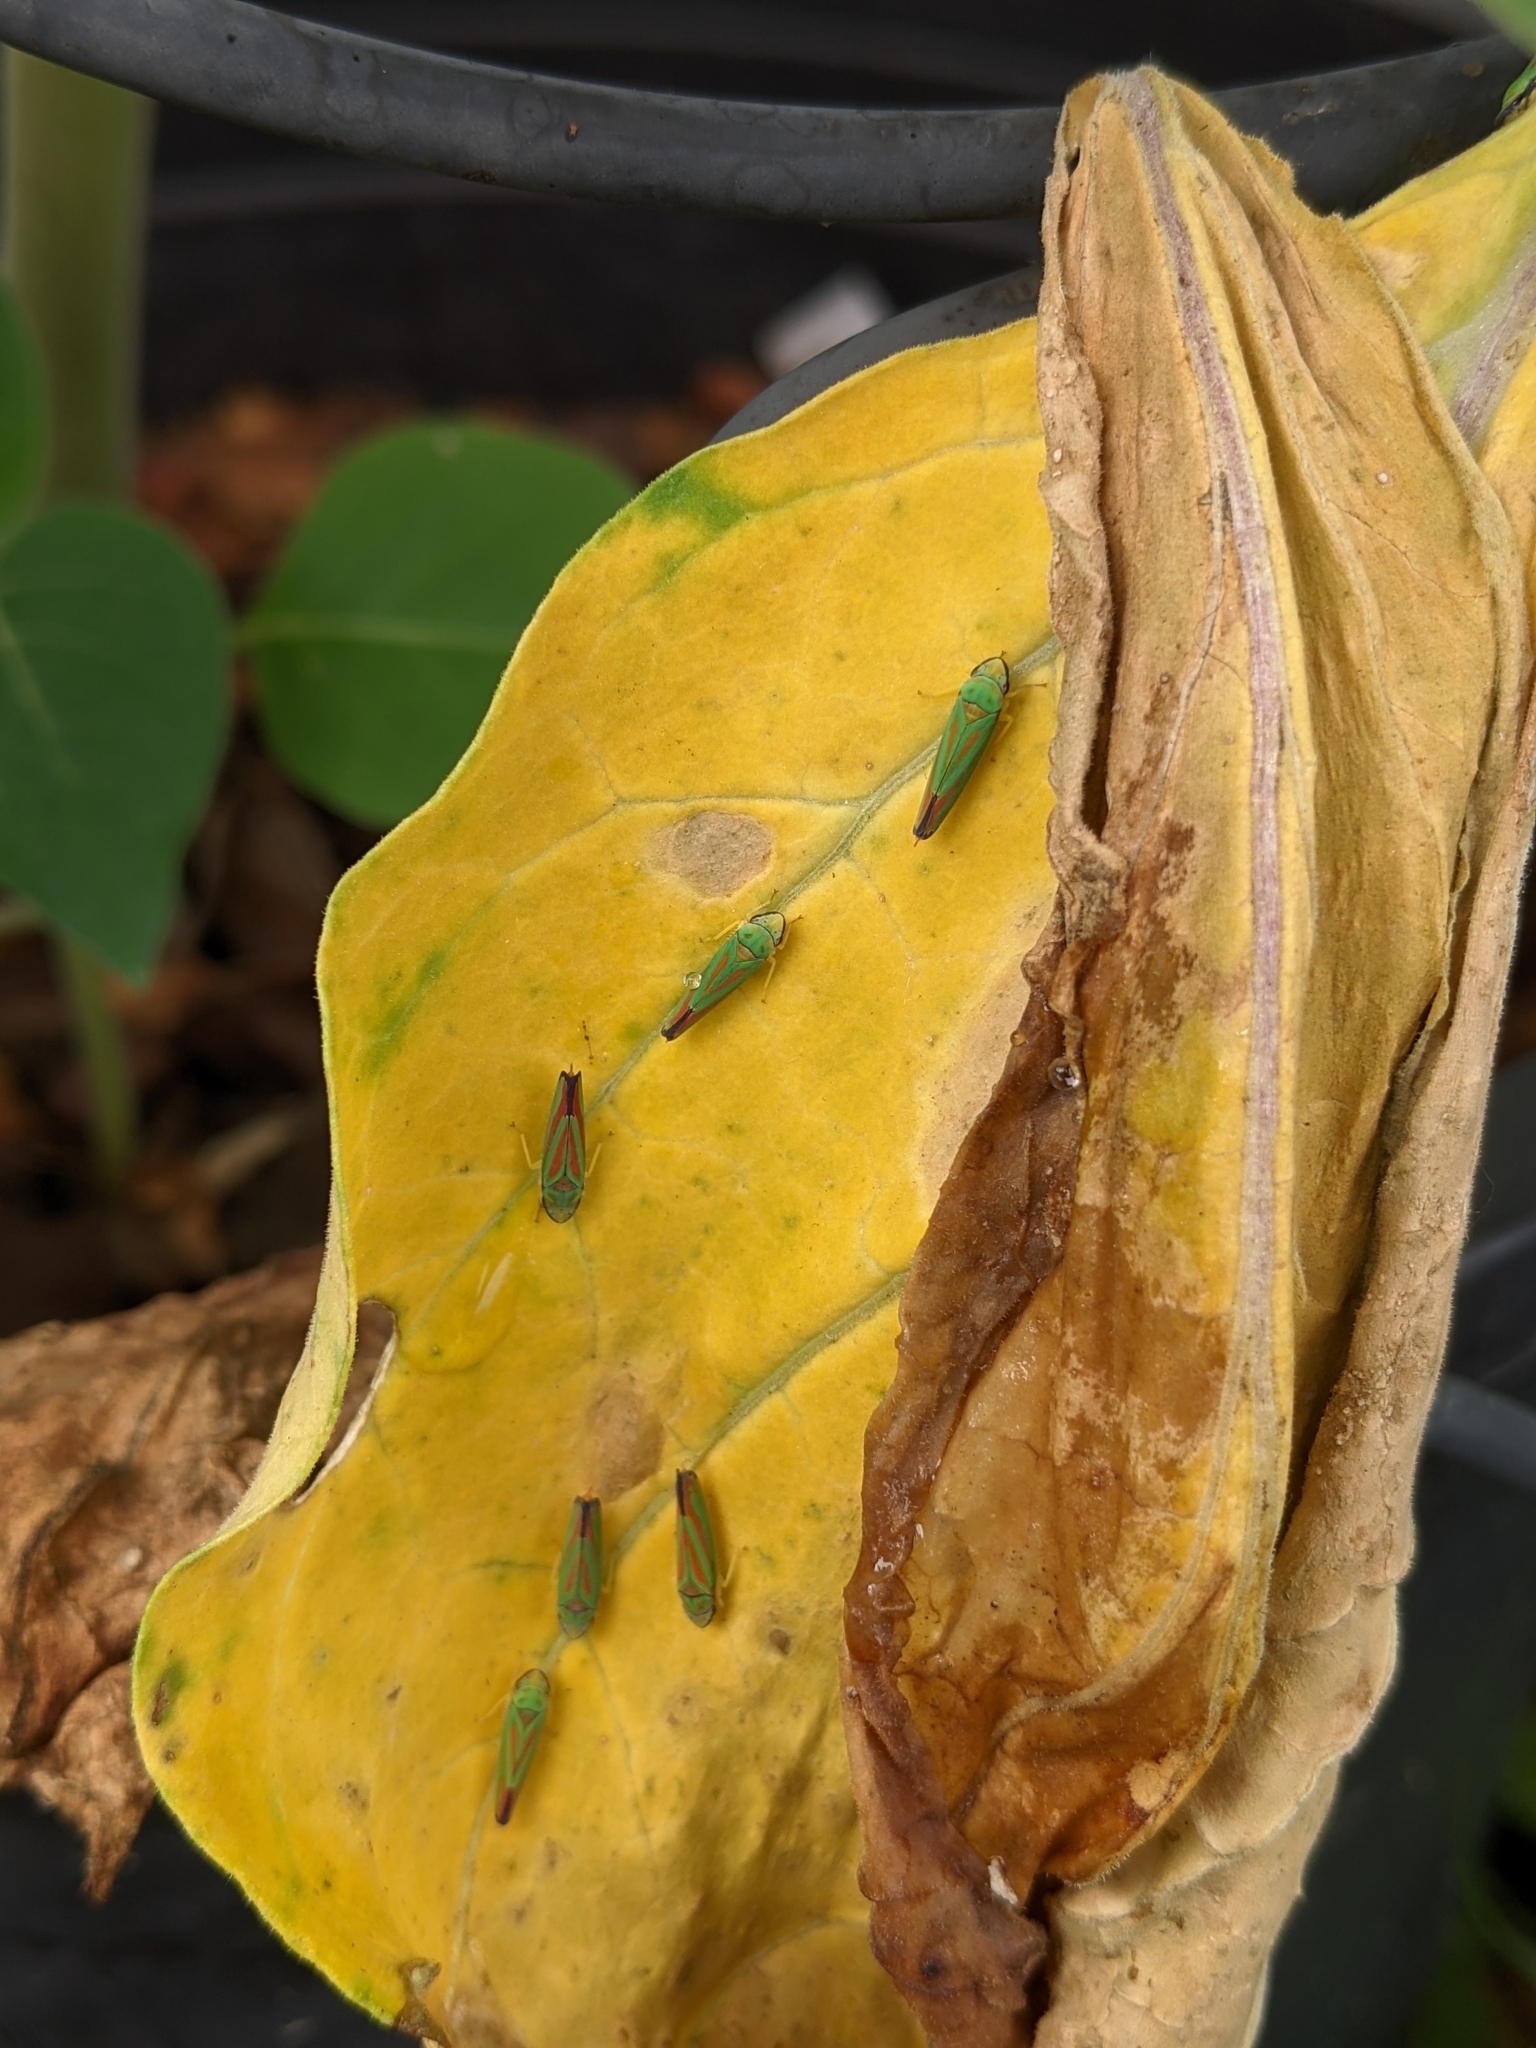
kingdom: Animalia
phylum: Arthropoda
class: Insecta
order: Hemiptera
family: Cicadellidae
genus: Graphocephala
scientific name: Graphocephala fennahi
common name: Rhododendron leafhopper
